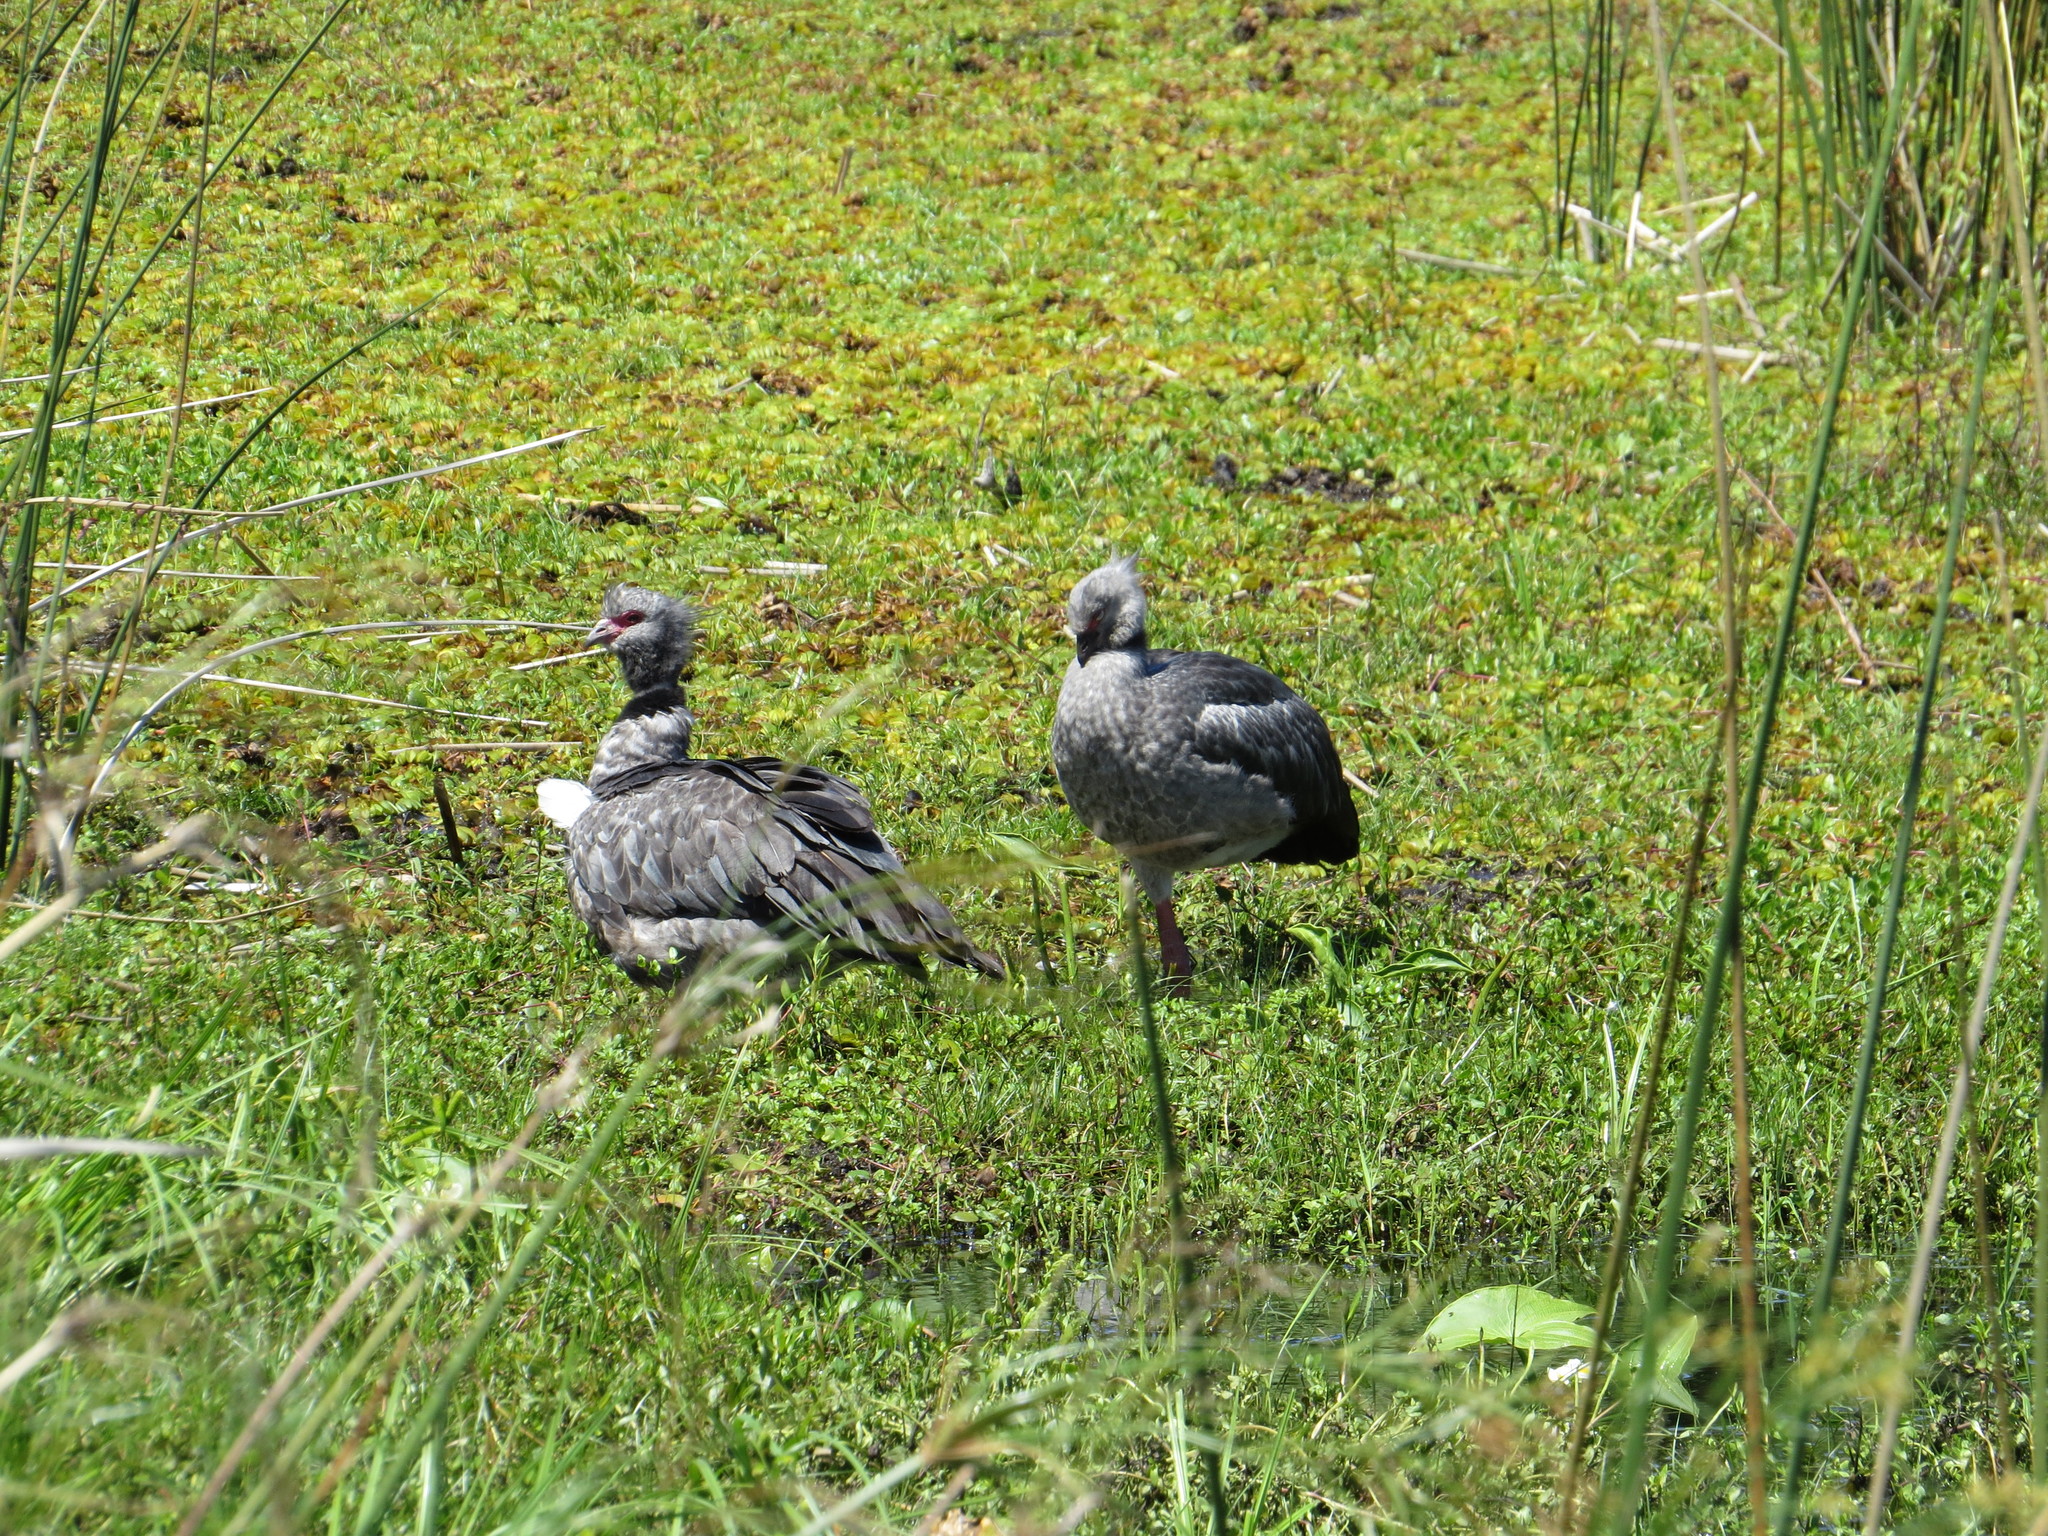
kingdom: Animalia
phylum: Chordata
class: Aves
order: Anseriformes
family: Anhimidae
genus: Chauna
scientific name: Chauna torquata
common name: Southern screamer
